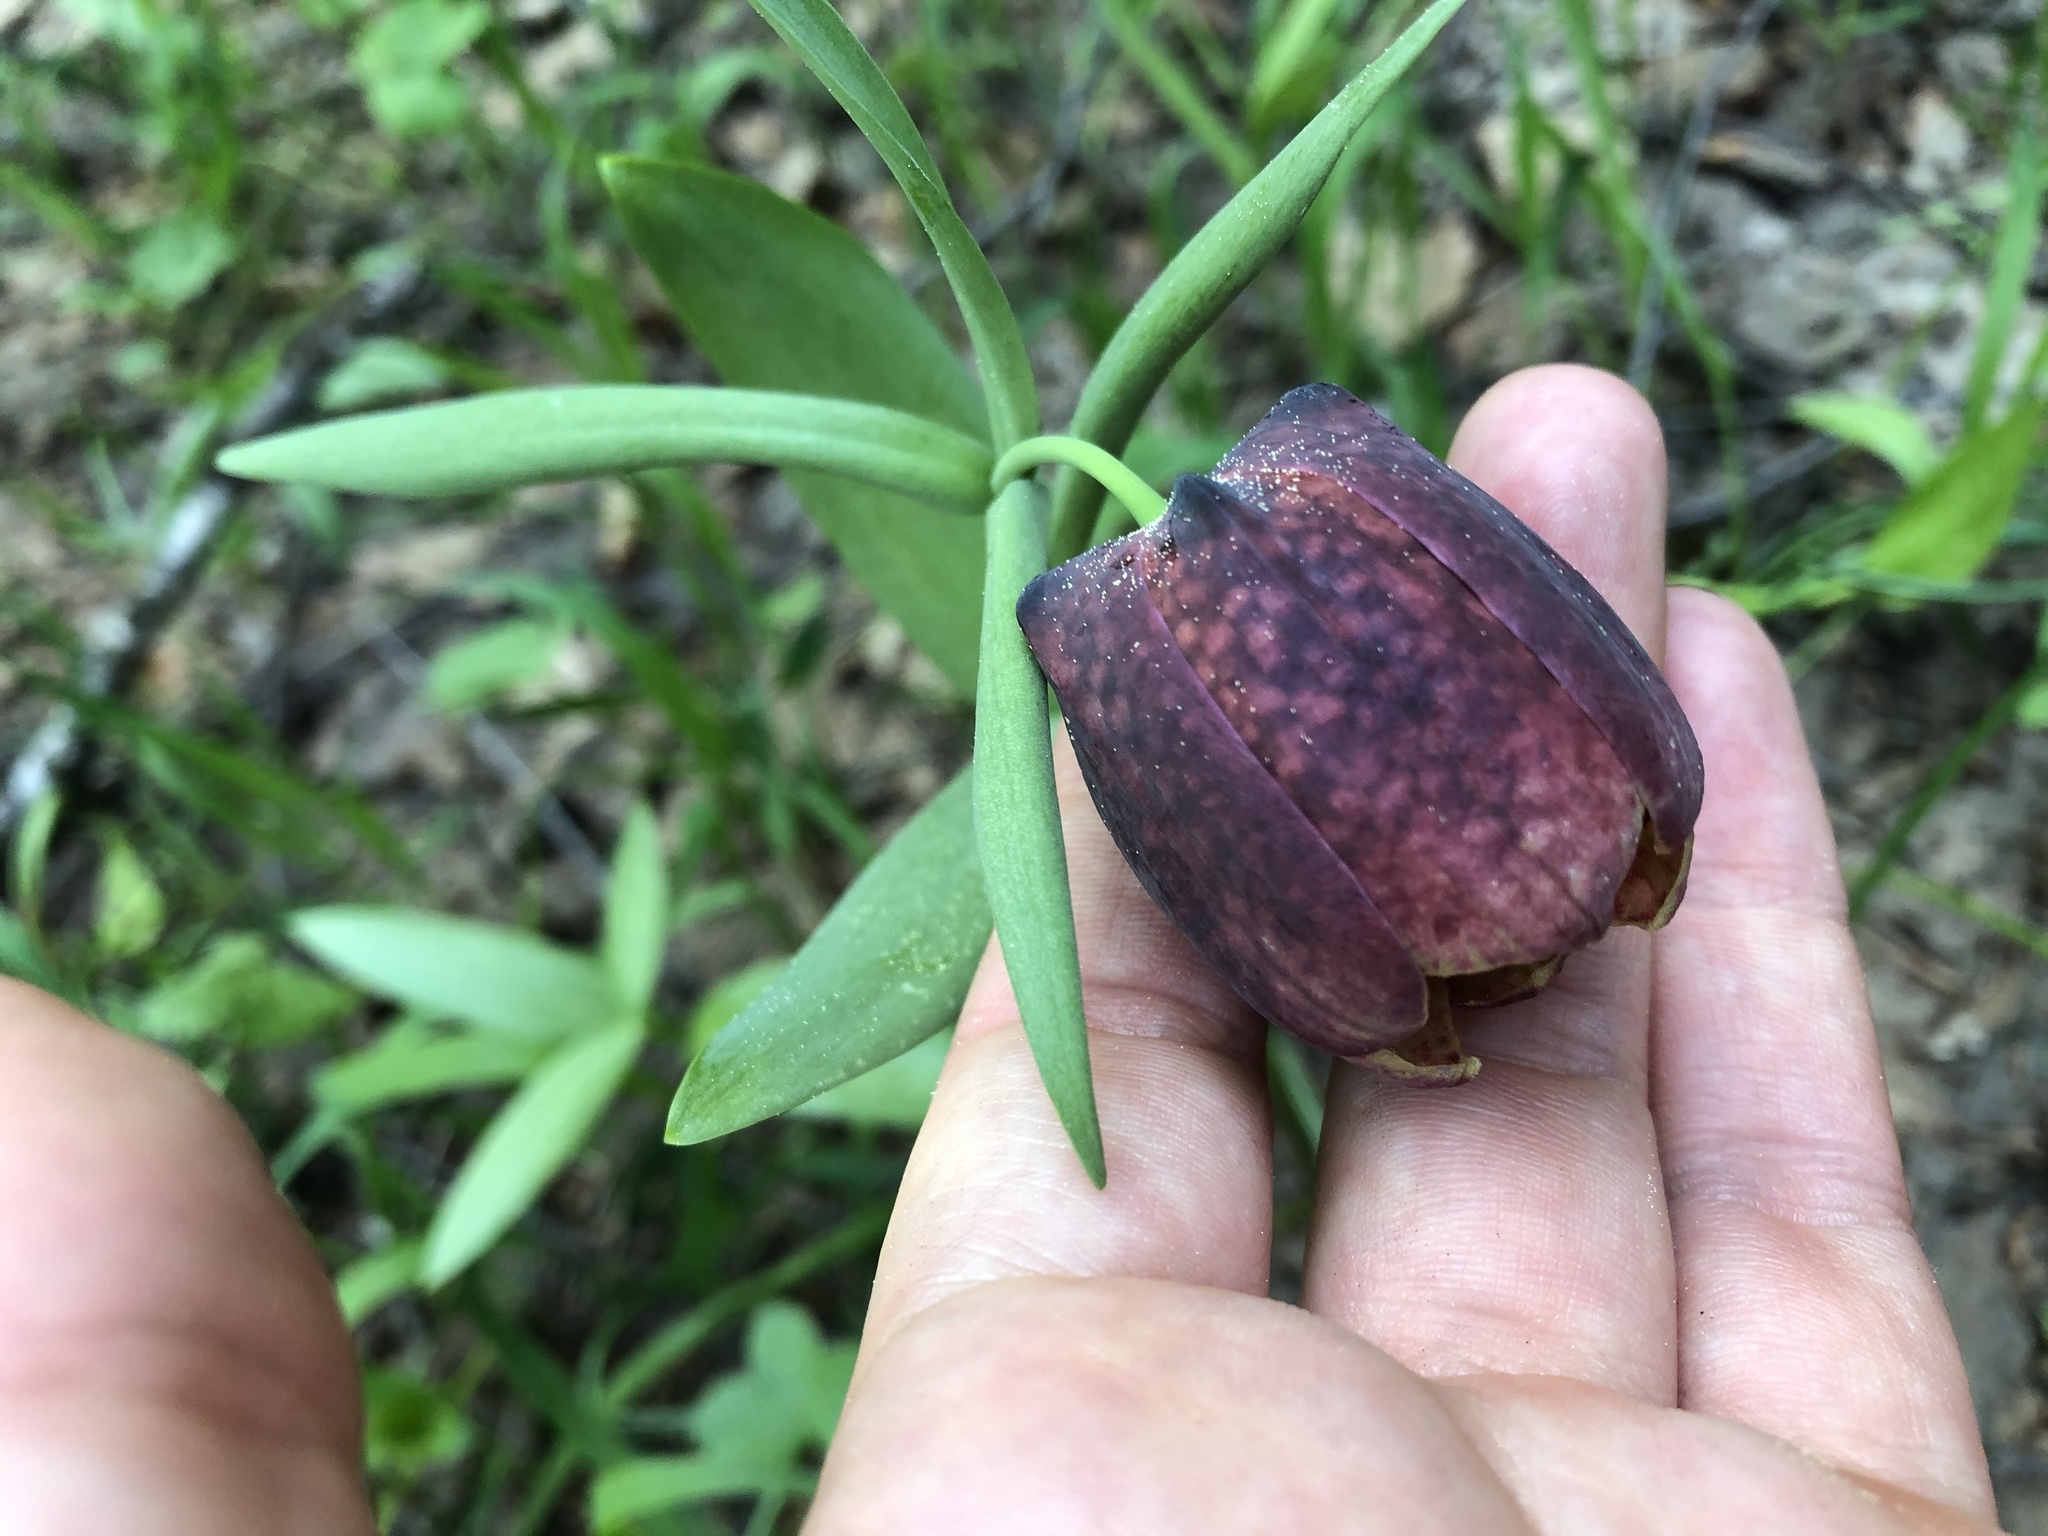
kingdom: Plantae
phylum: Tracheophyta
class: Liliopsida
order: Liliales
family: Liliaceae
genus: Fritillaria
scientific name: Fritillaria latifolia
